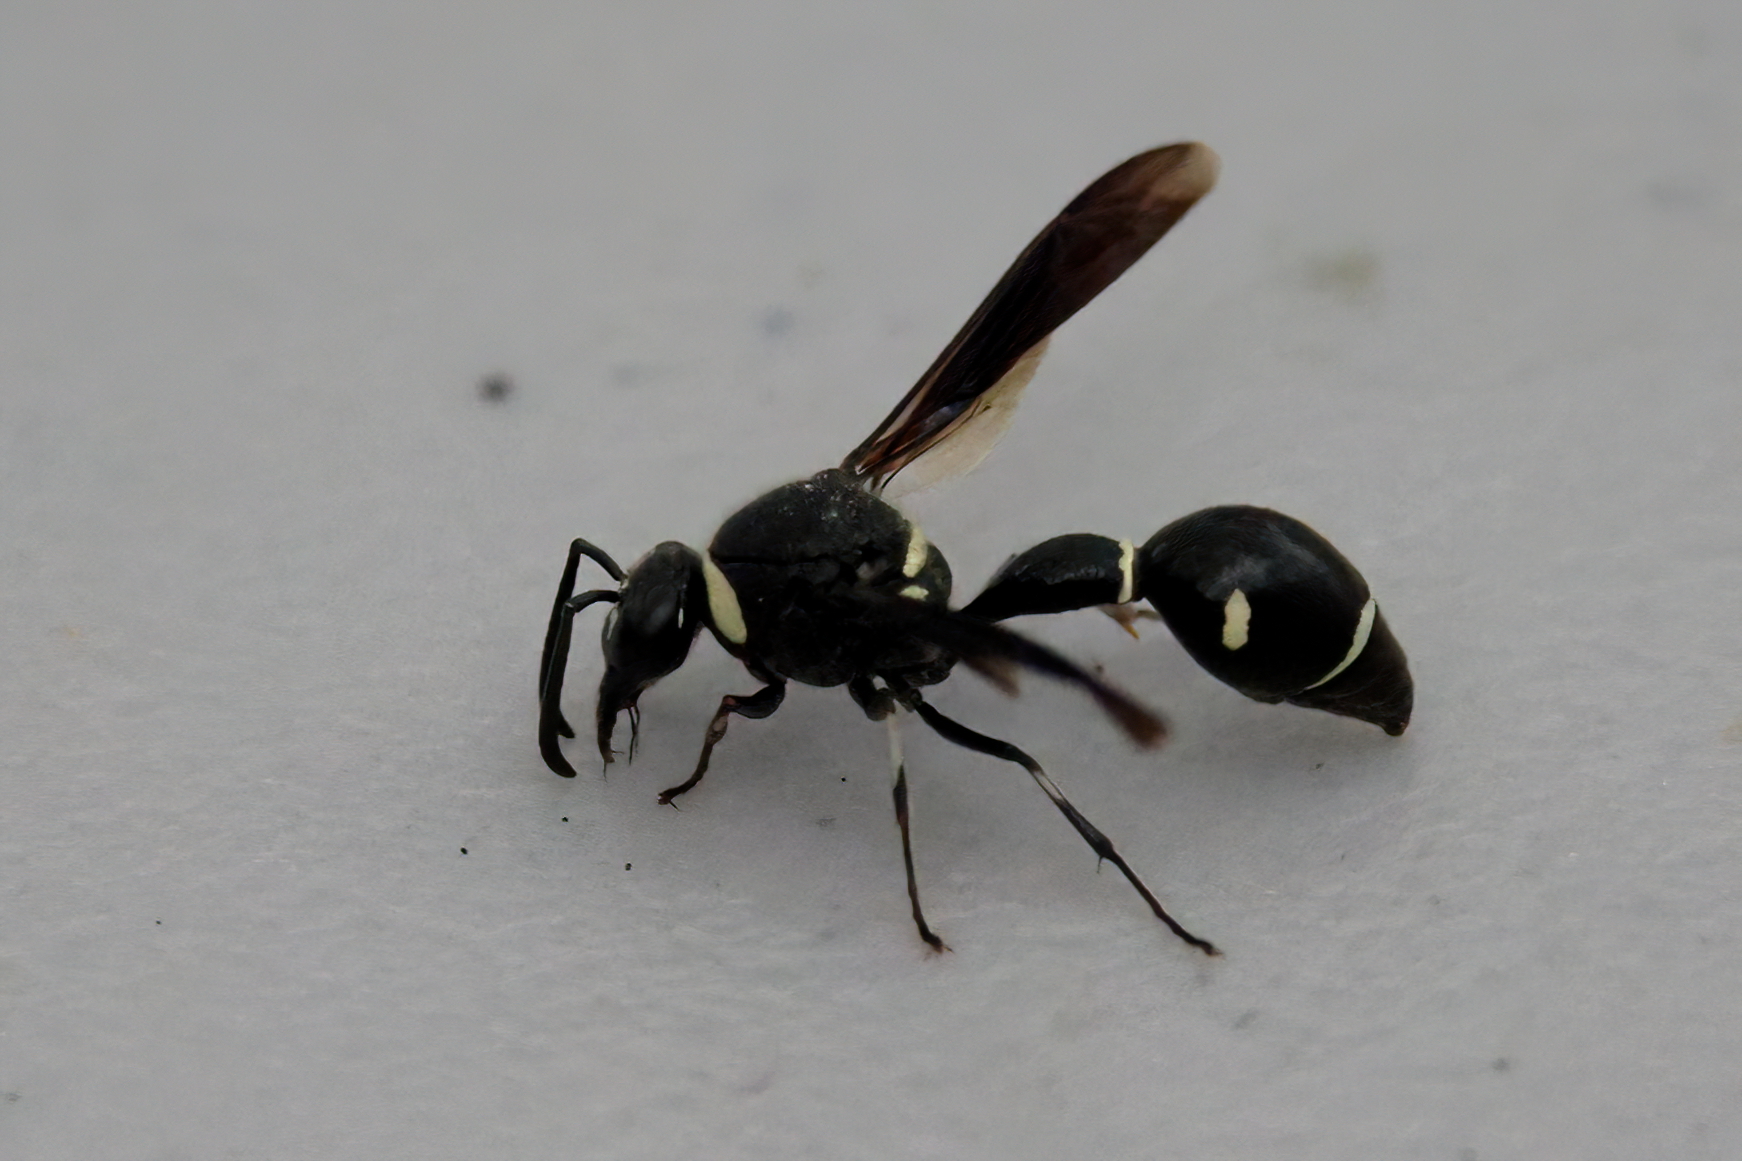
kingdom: Animalia
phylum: Arthropoda
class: Insecta
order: Hymenoptera
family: Vespidae
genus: Eumenes
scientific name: Eumenes fraternus
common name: Fraternal potter wasp
